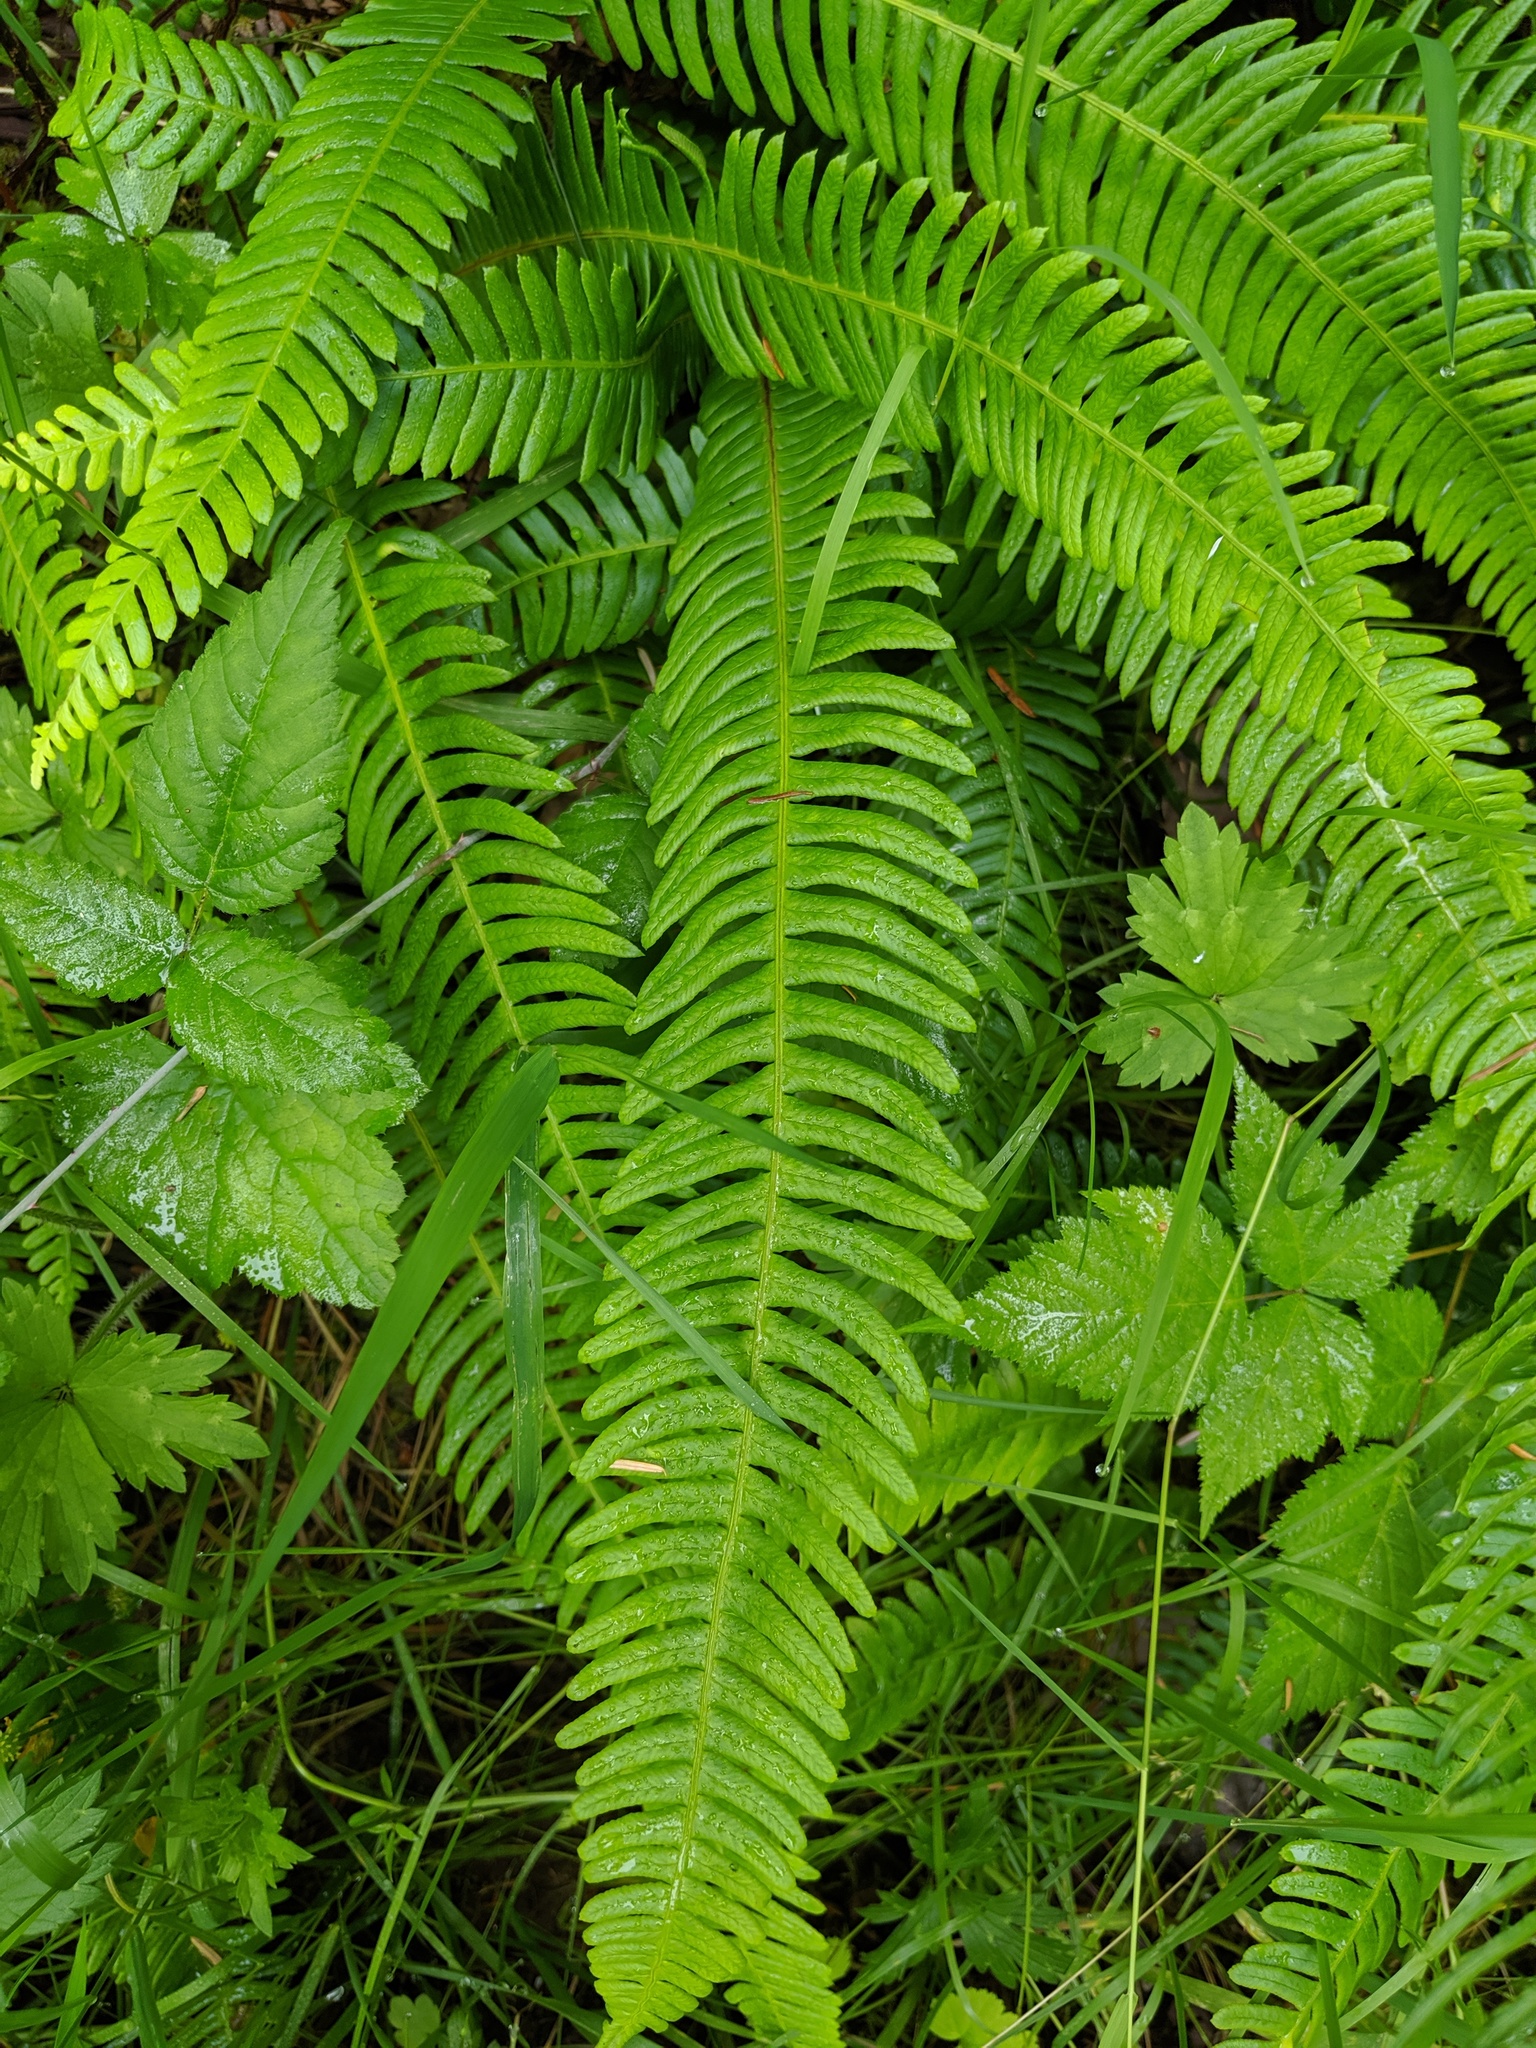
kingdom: Plantae
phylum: Tracheophyta
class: Polypodiopsida
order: Polypodiales
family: Blechnaceae
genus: Struthiopteris
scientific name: Struthiopteris spicant
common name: Deer fern
